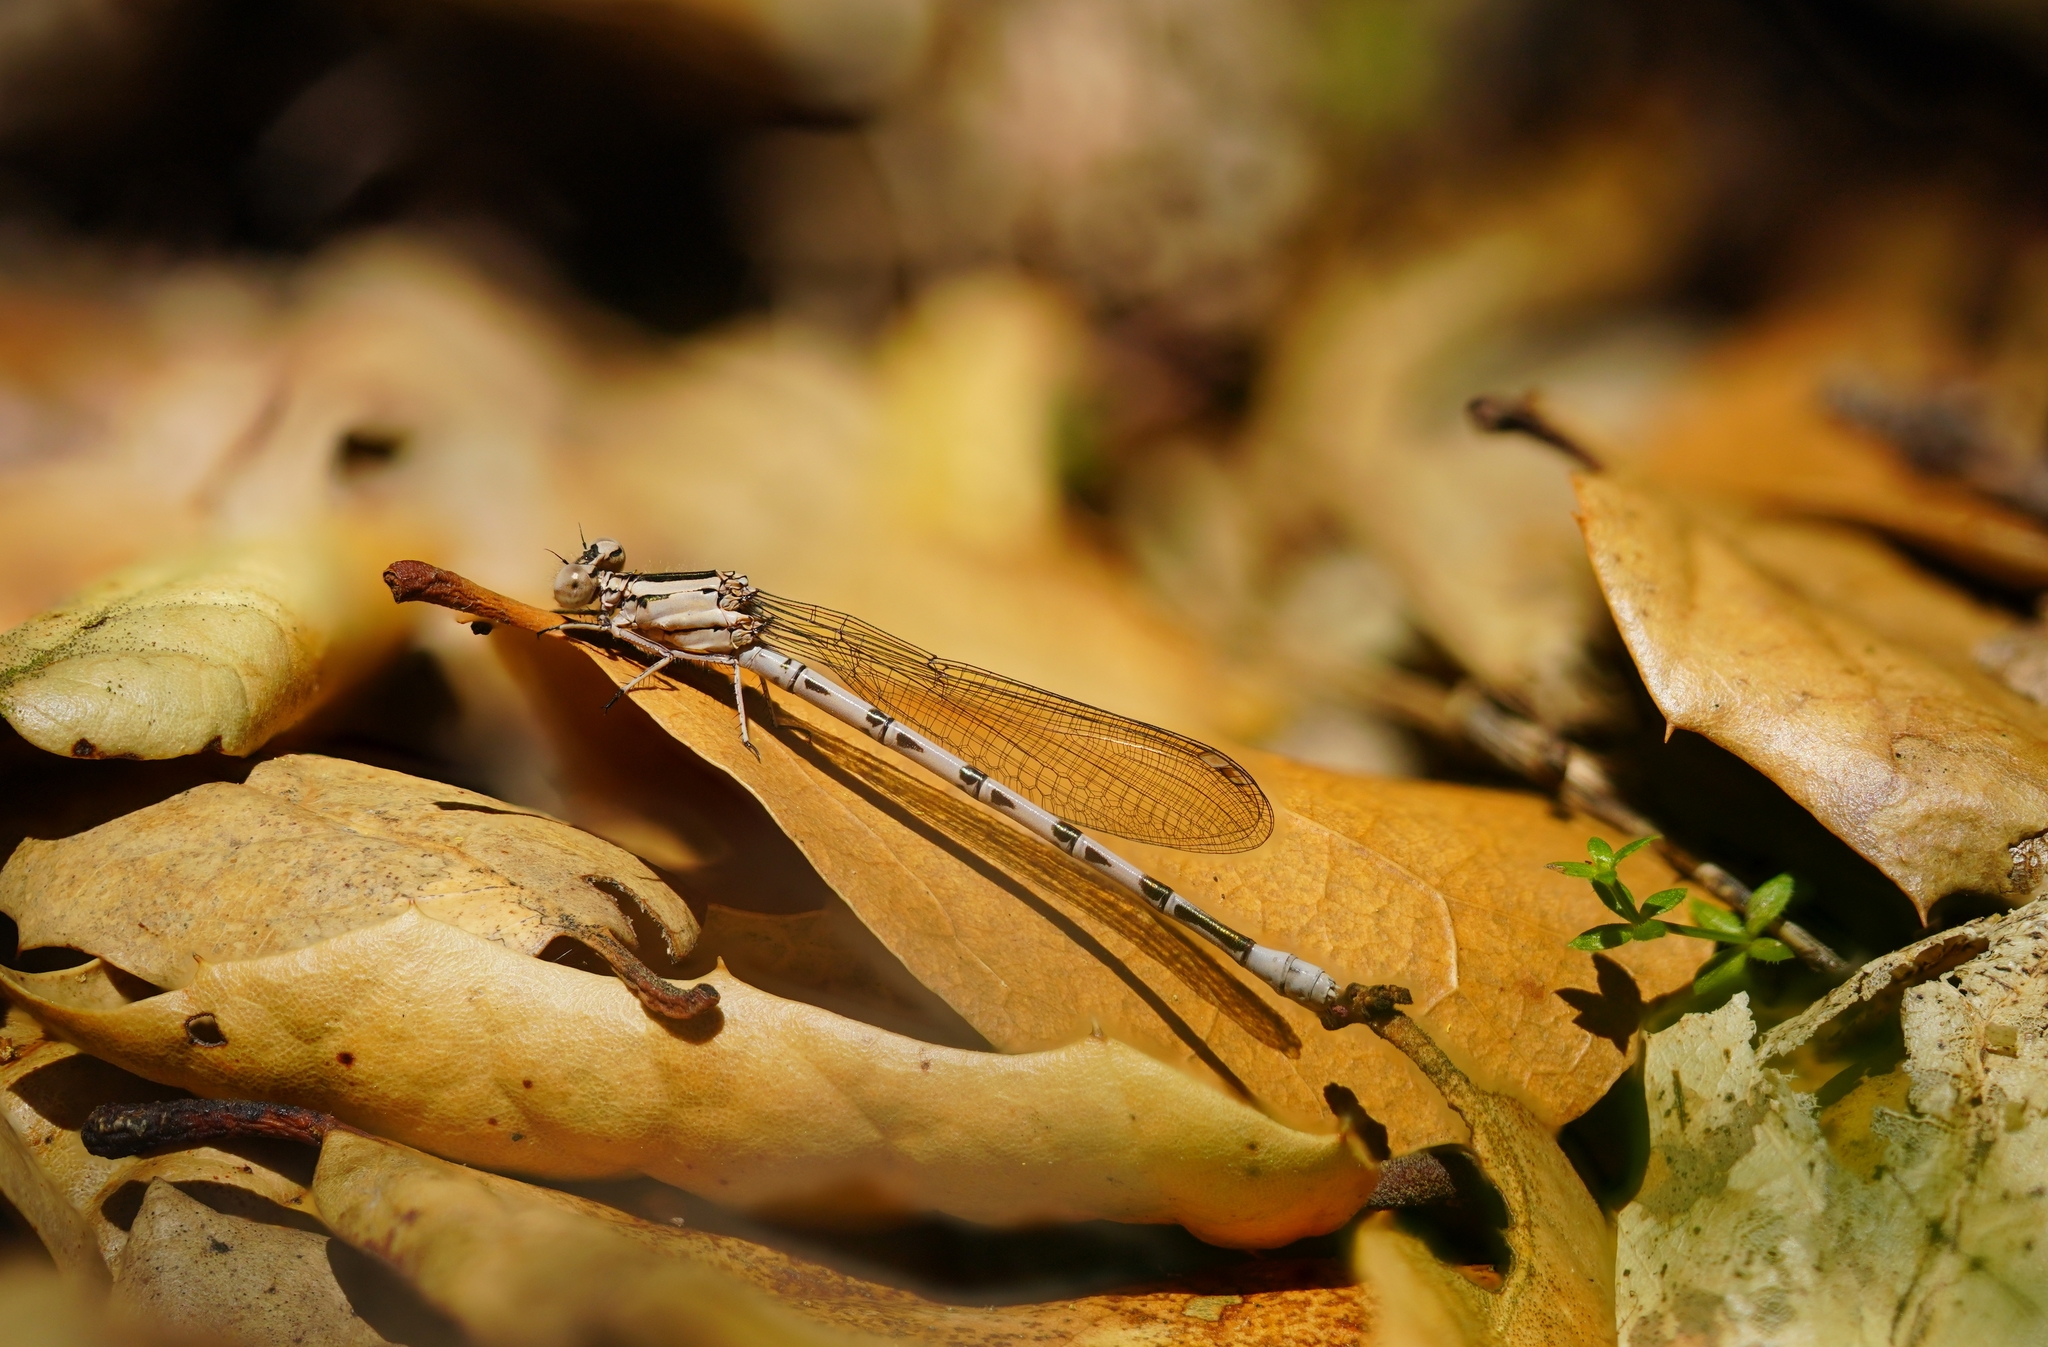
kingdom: Animalia
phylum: Arthropoda
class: Insecta
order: Odonata
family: Coenagrionidae
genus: Argia
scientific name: Argia vivida
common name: Vivid dancer
